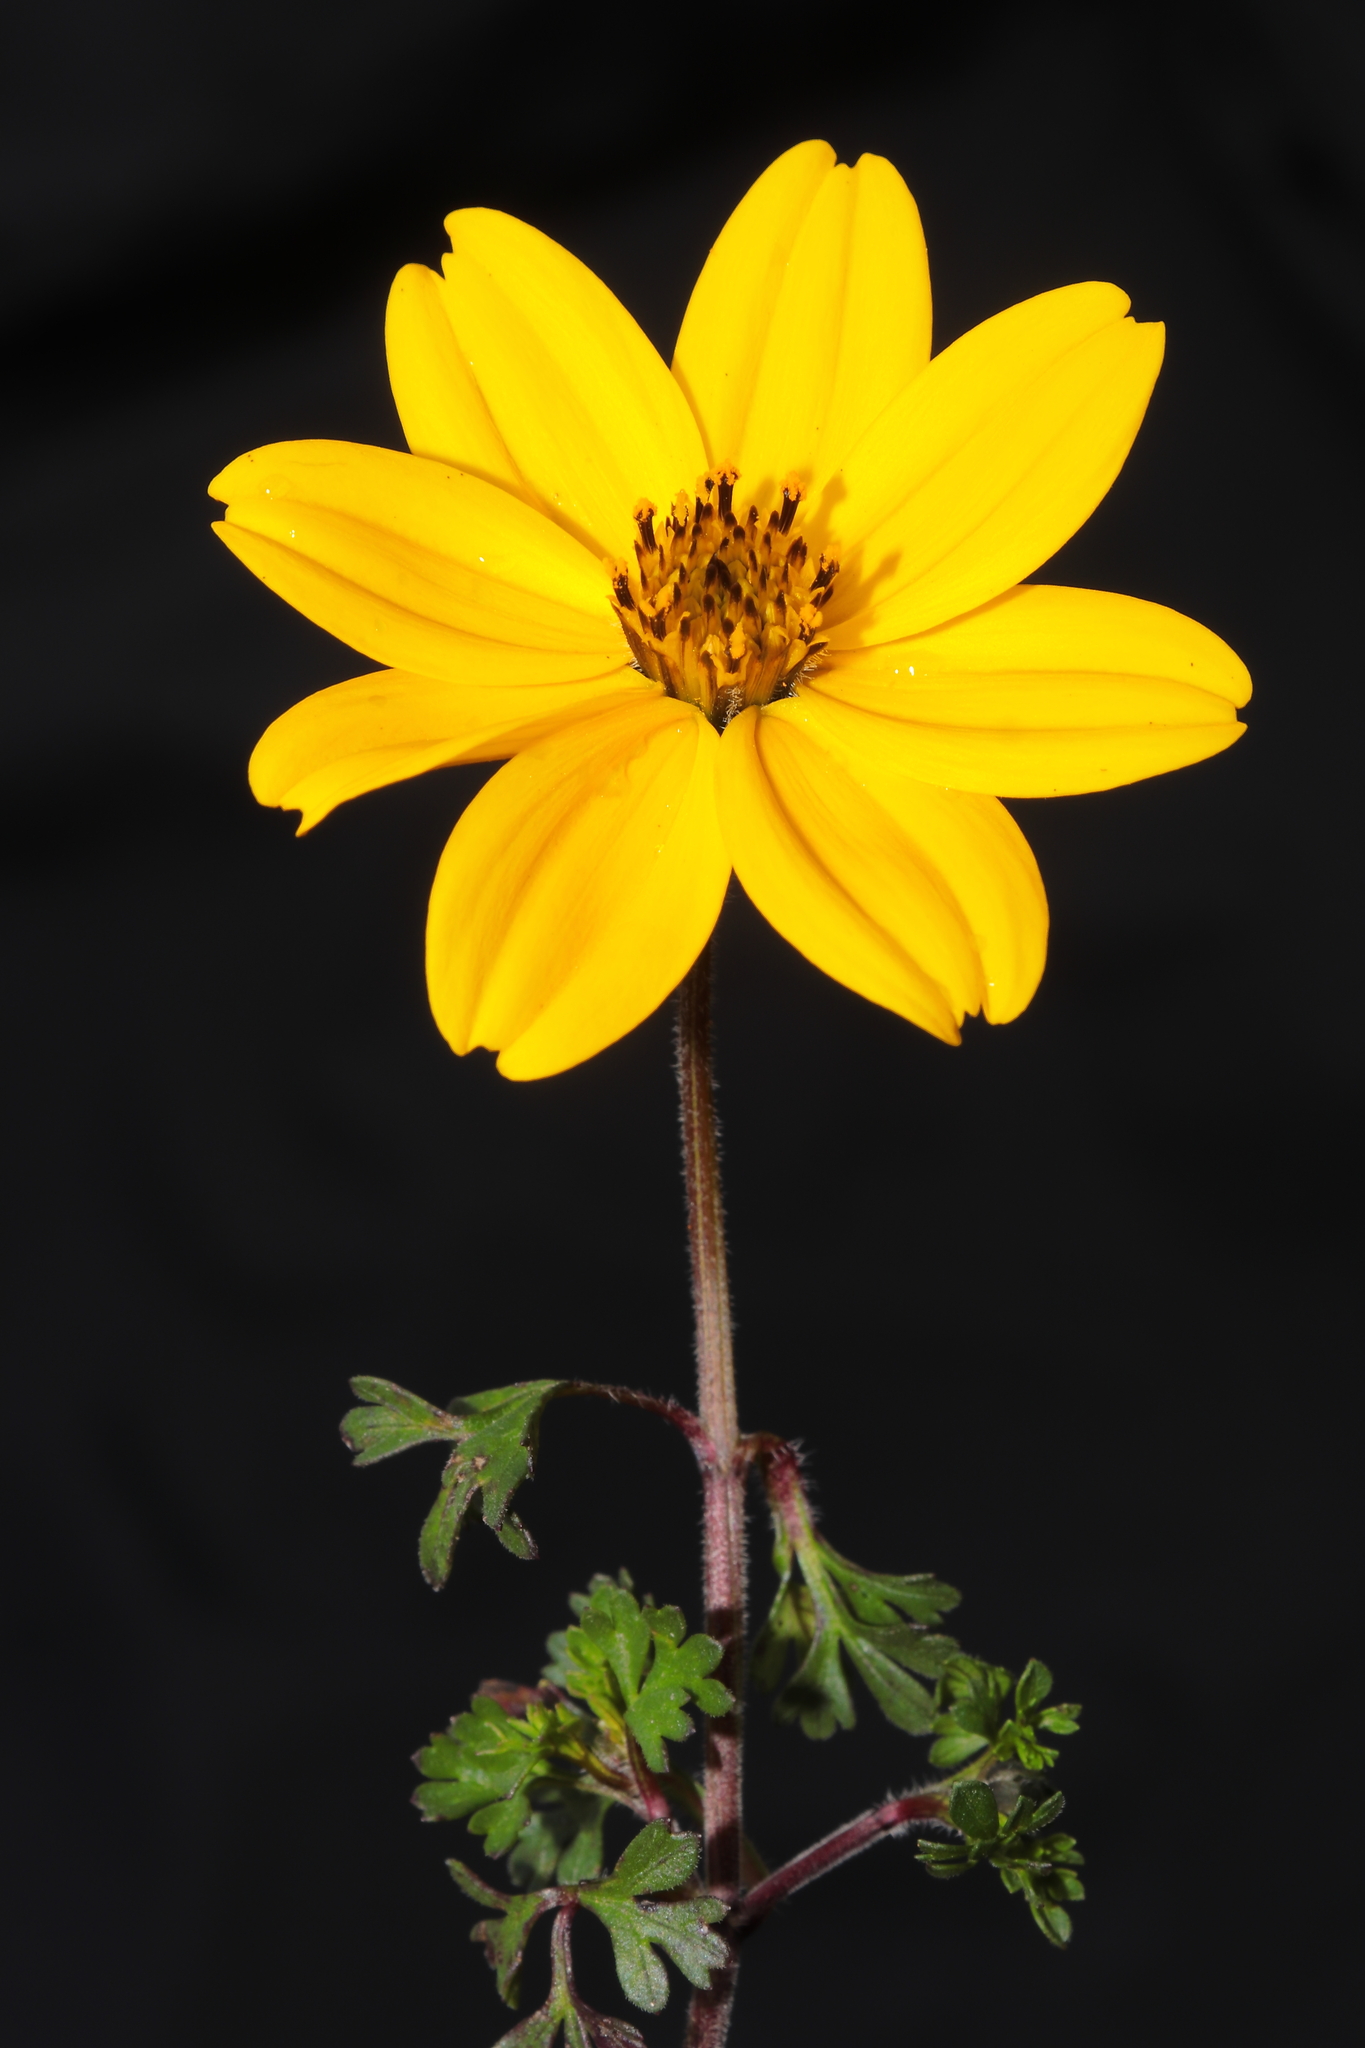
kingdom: Plantae
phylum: Tracheophyta
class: Magnoliopsida
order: Asterales
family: Asteraceae
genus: Bidens
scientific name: Bidens andicola
